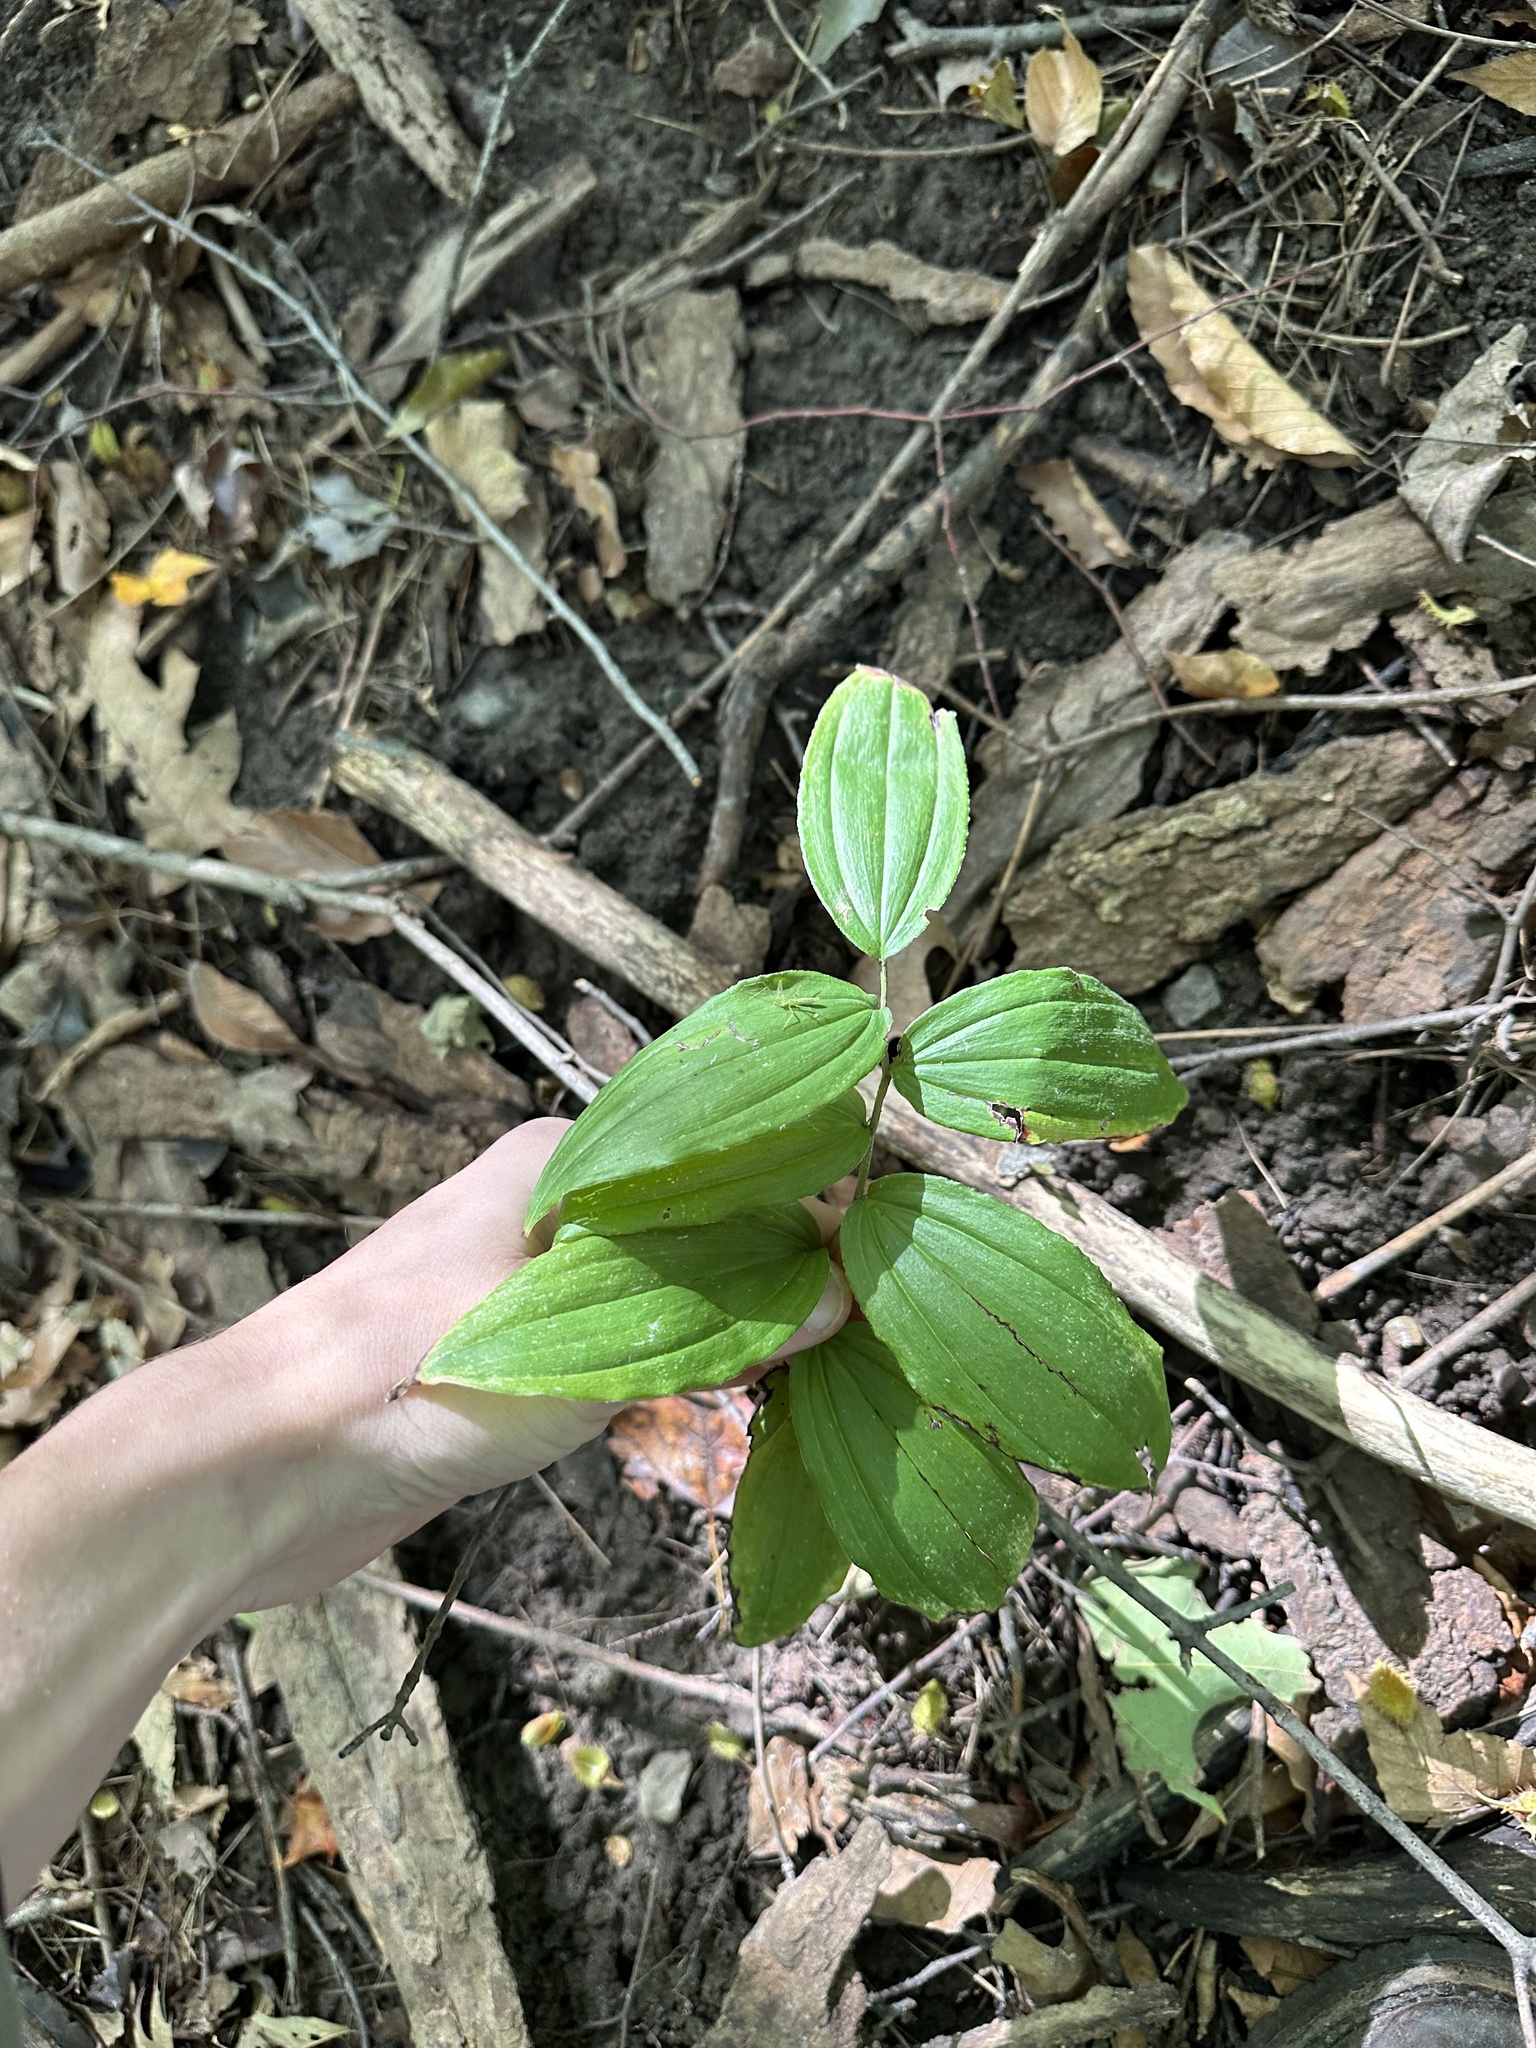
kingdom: Plantae
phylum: Tracheophyta
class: Liliopsida
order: Asparagales
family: Asparagaceae
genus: Maianthemum
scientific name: Maianthemum racemosum
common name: False spikenard
